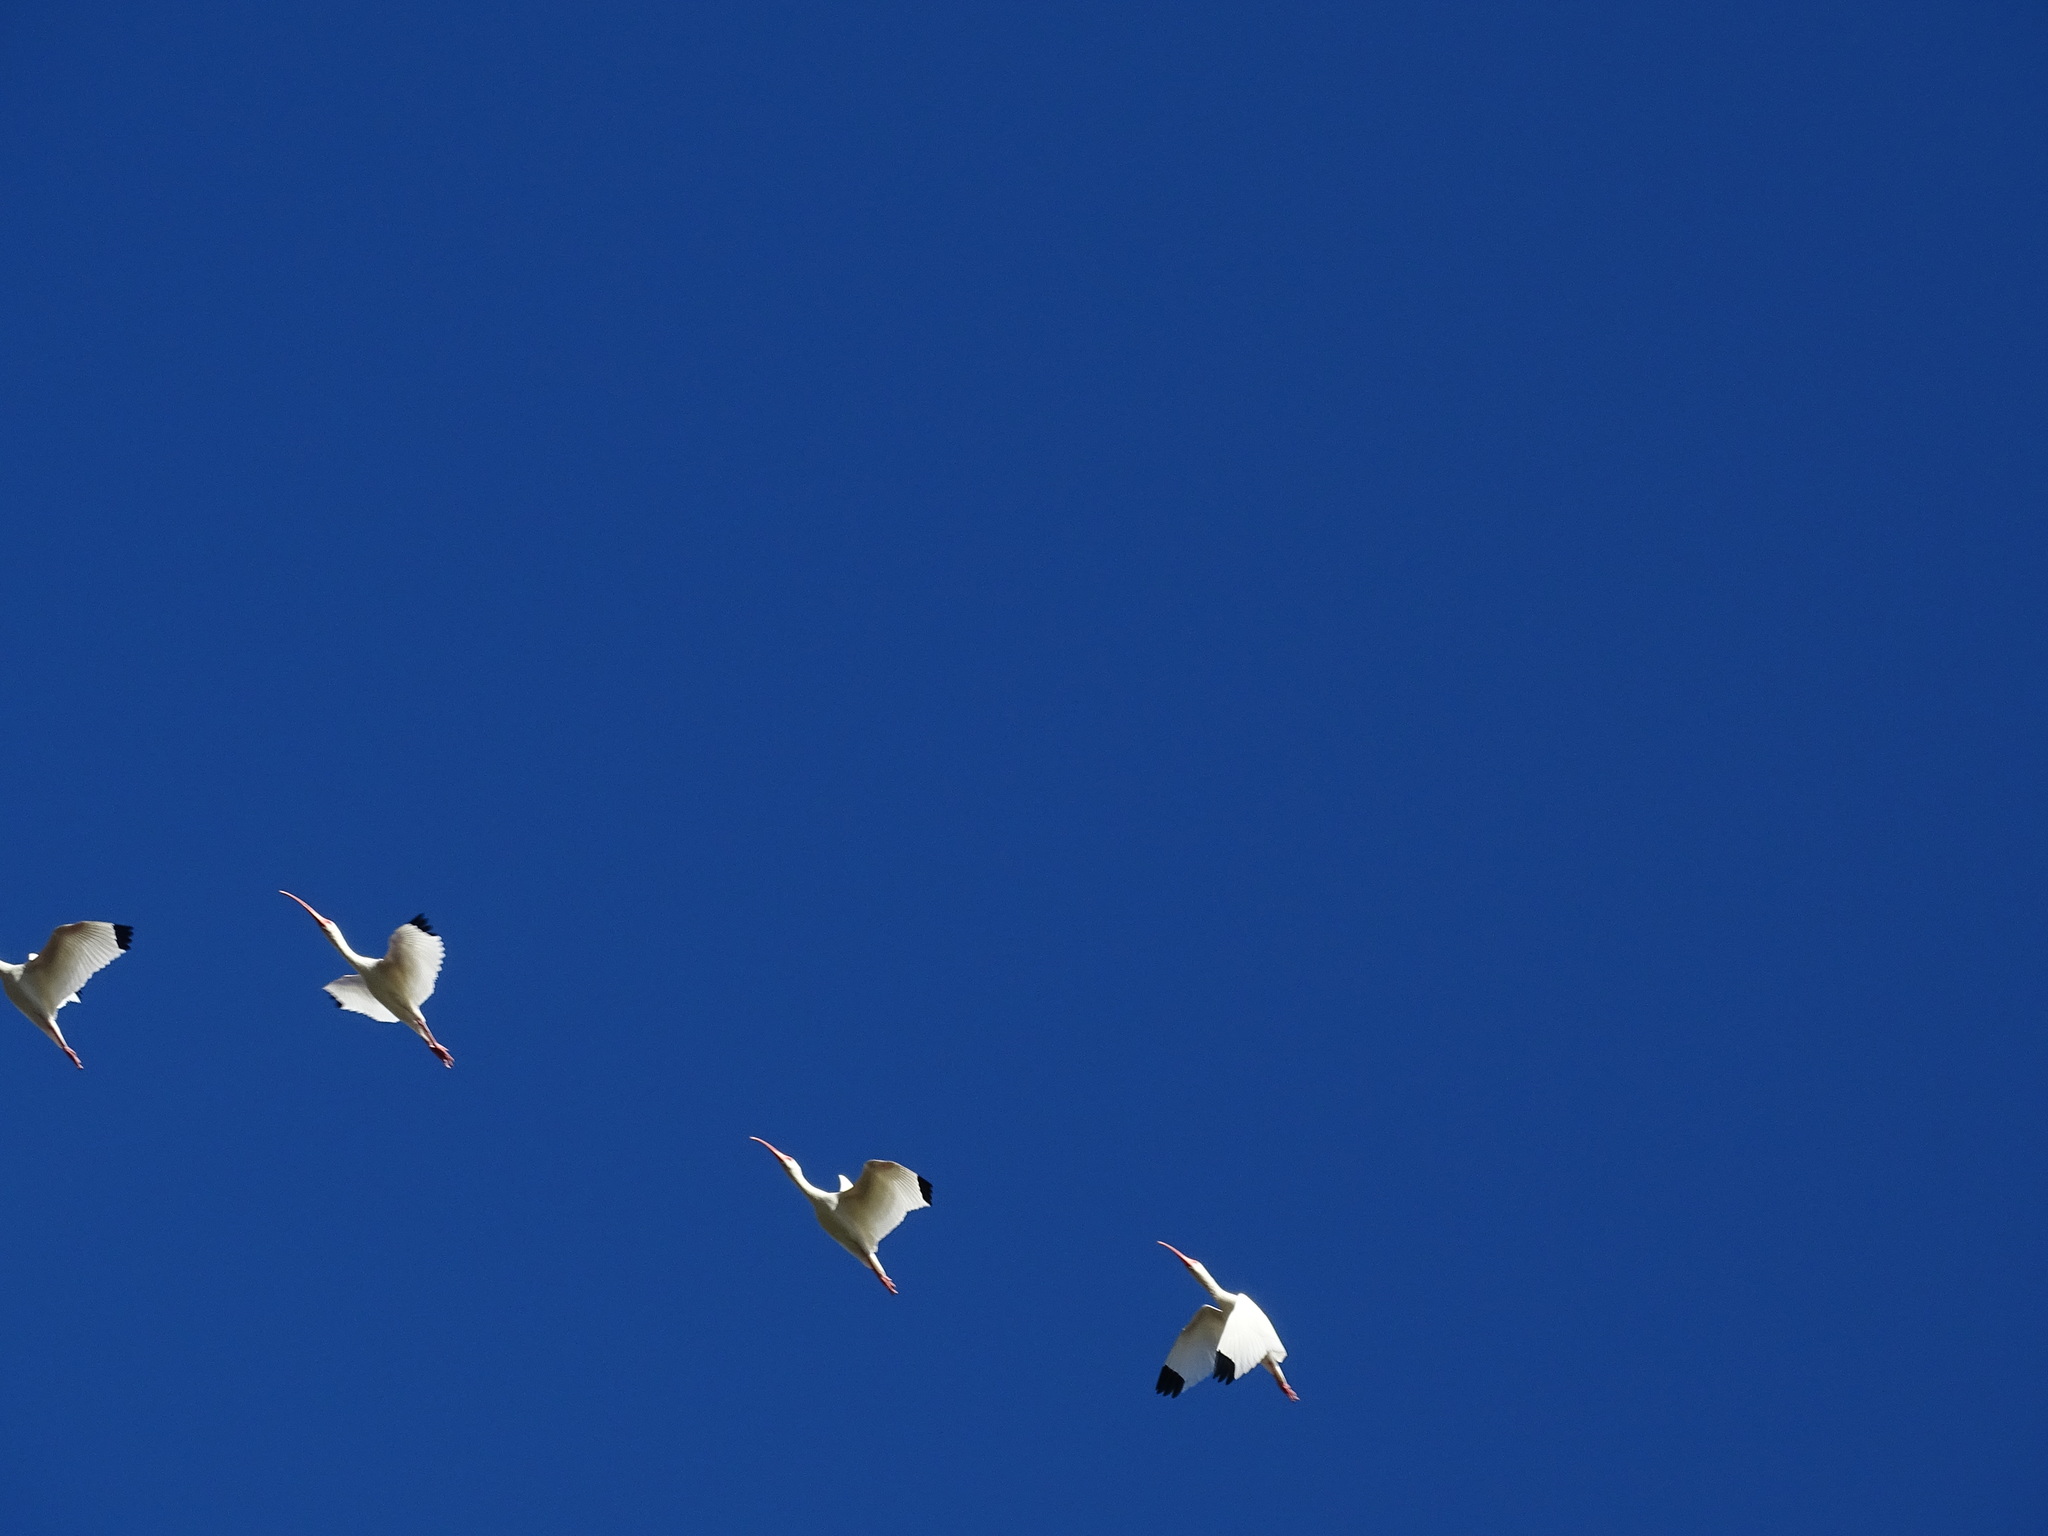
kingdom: Animalia
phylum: Chordata
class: Aves
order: Pelecaniformes
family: Threskiornithidae
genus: Eudocimus
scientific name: Eudocimus albus
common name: White ibis
